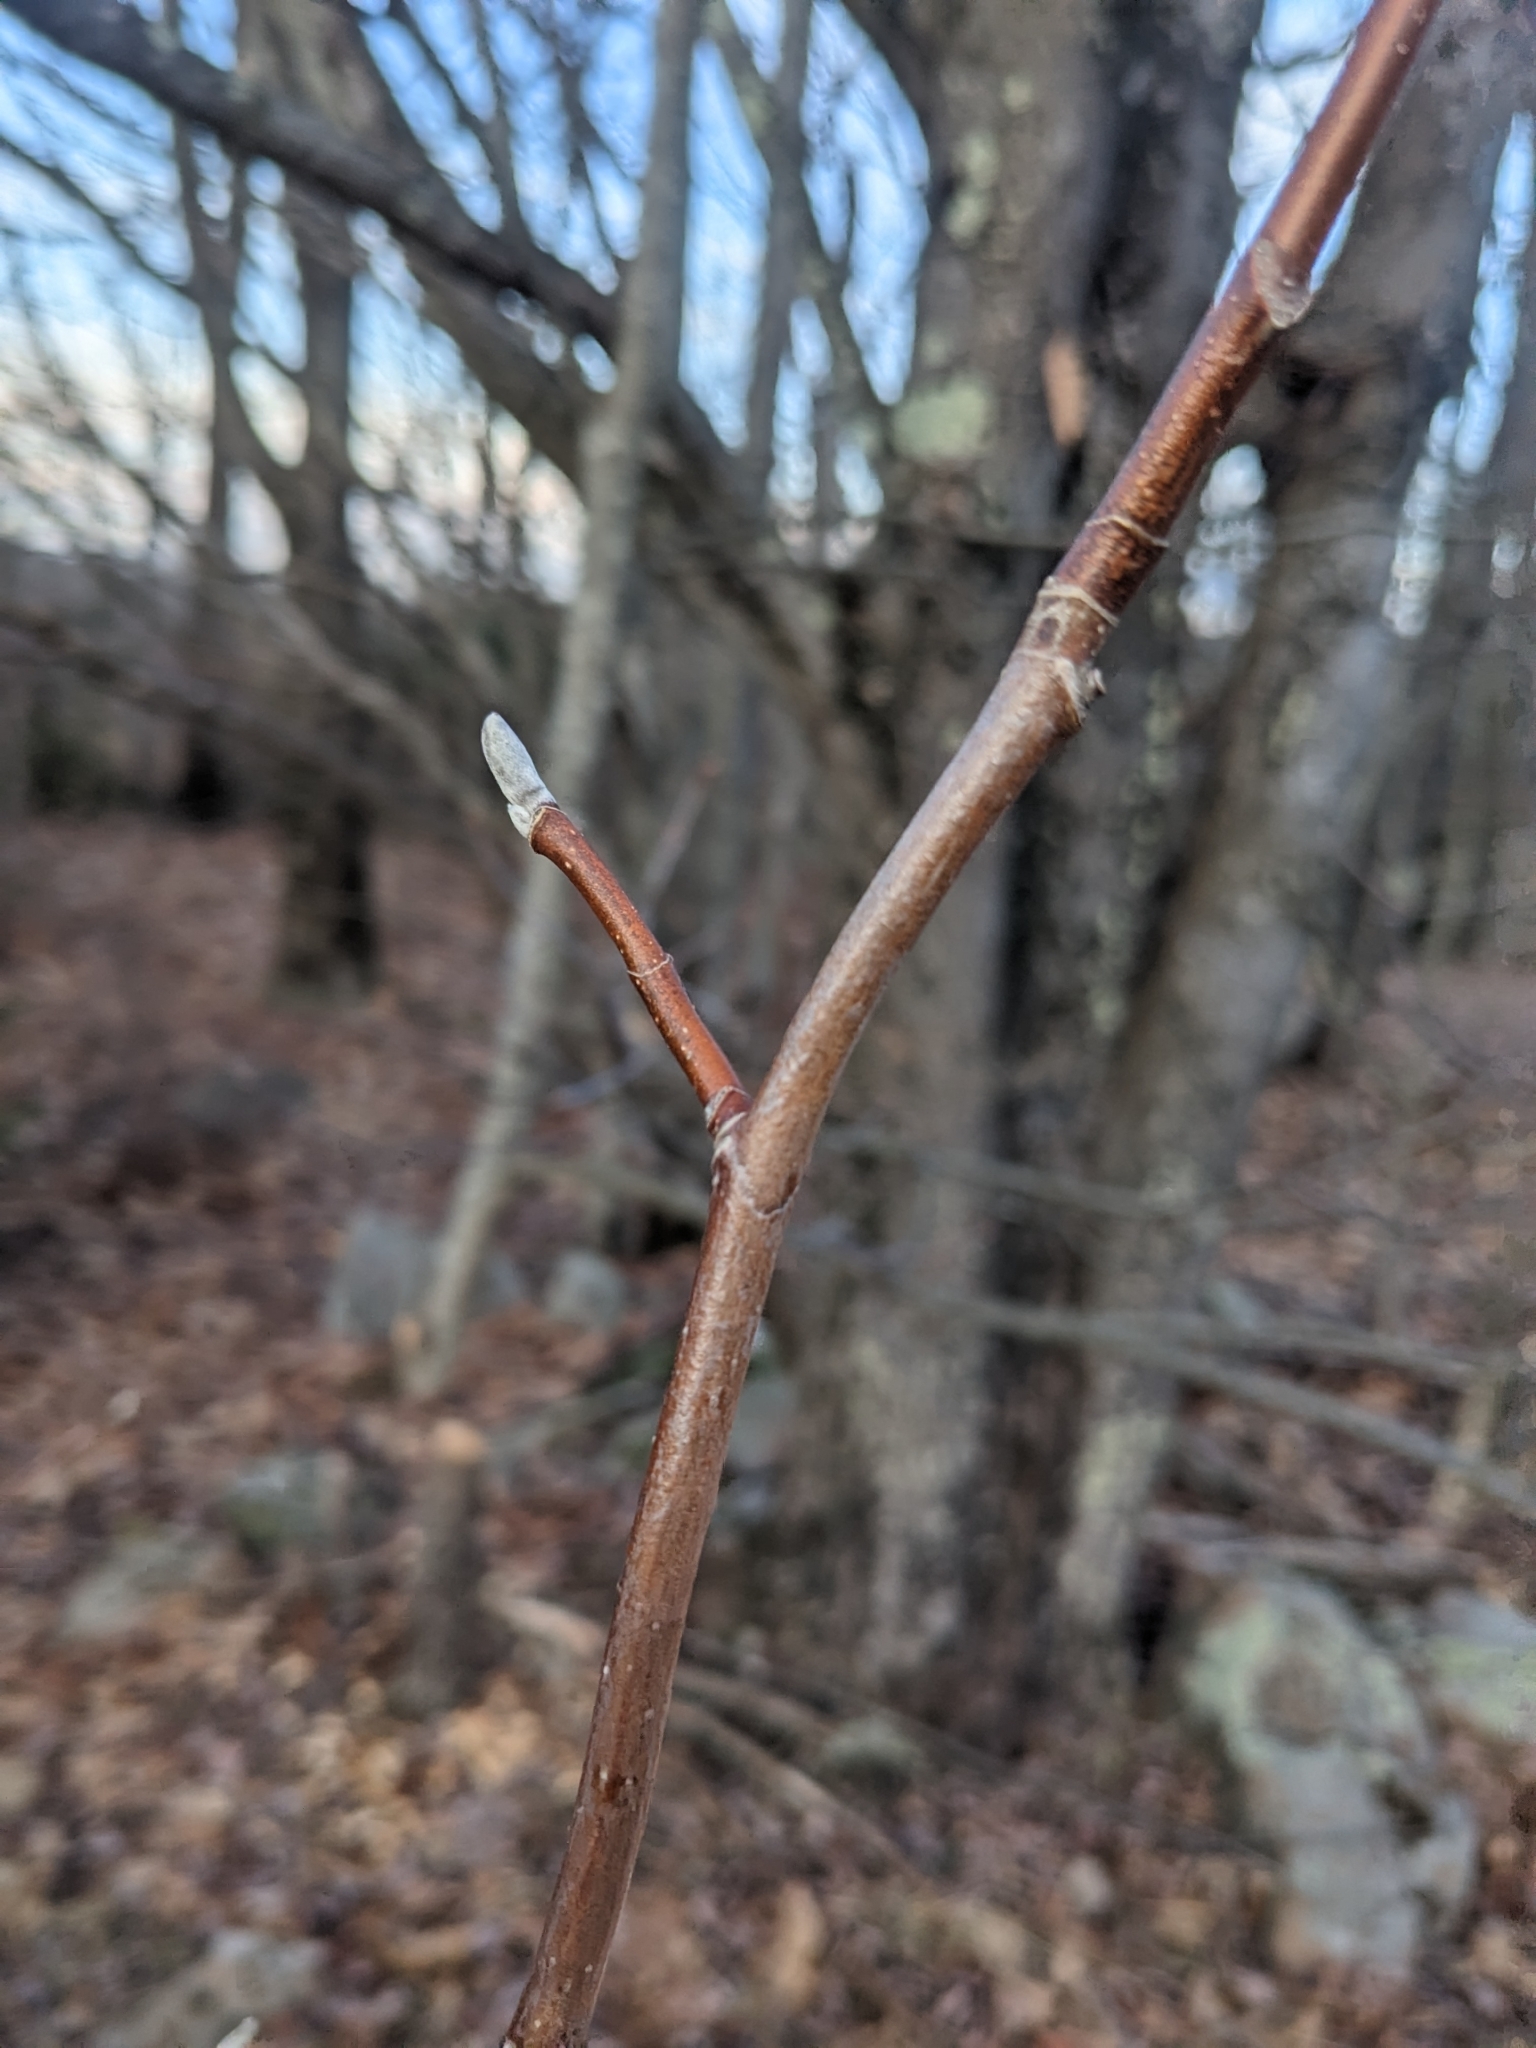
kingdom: Plantae
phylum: Tracheophyta
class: Magnoliopsida
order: Magnoliales
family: Magnoliaceae
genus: Magnolia
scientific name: Magnolia acuminata
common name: Cucumber magnolia
